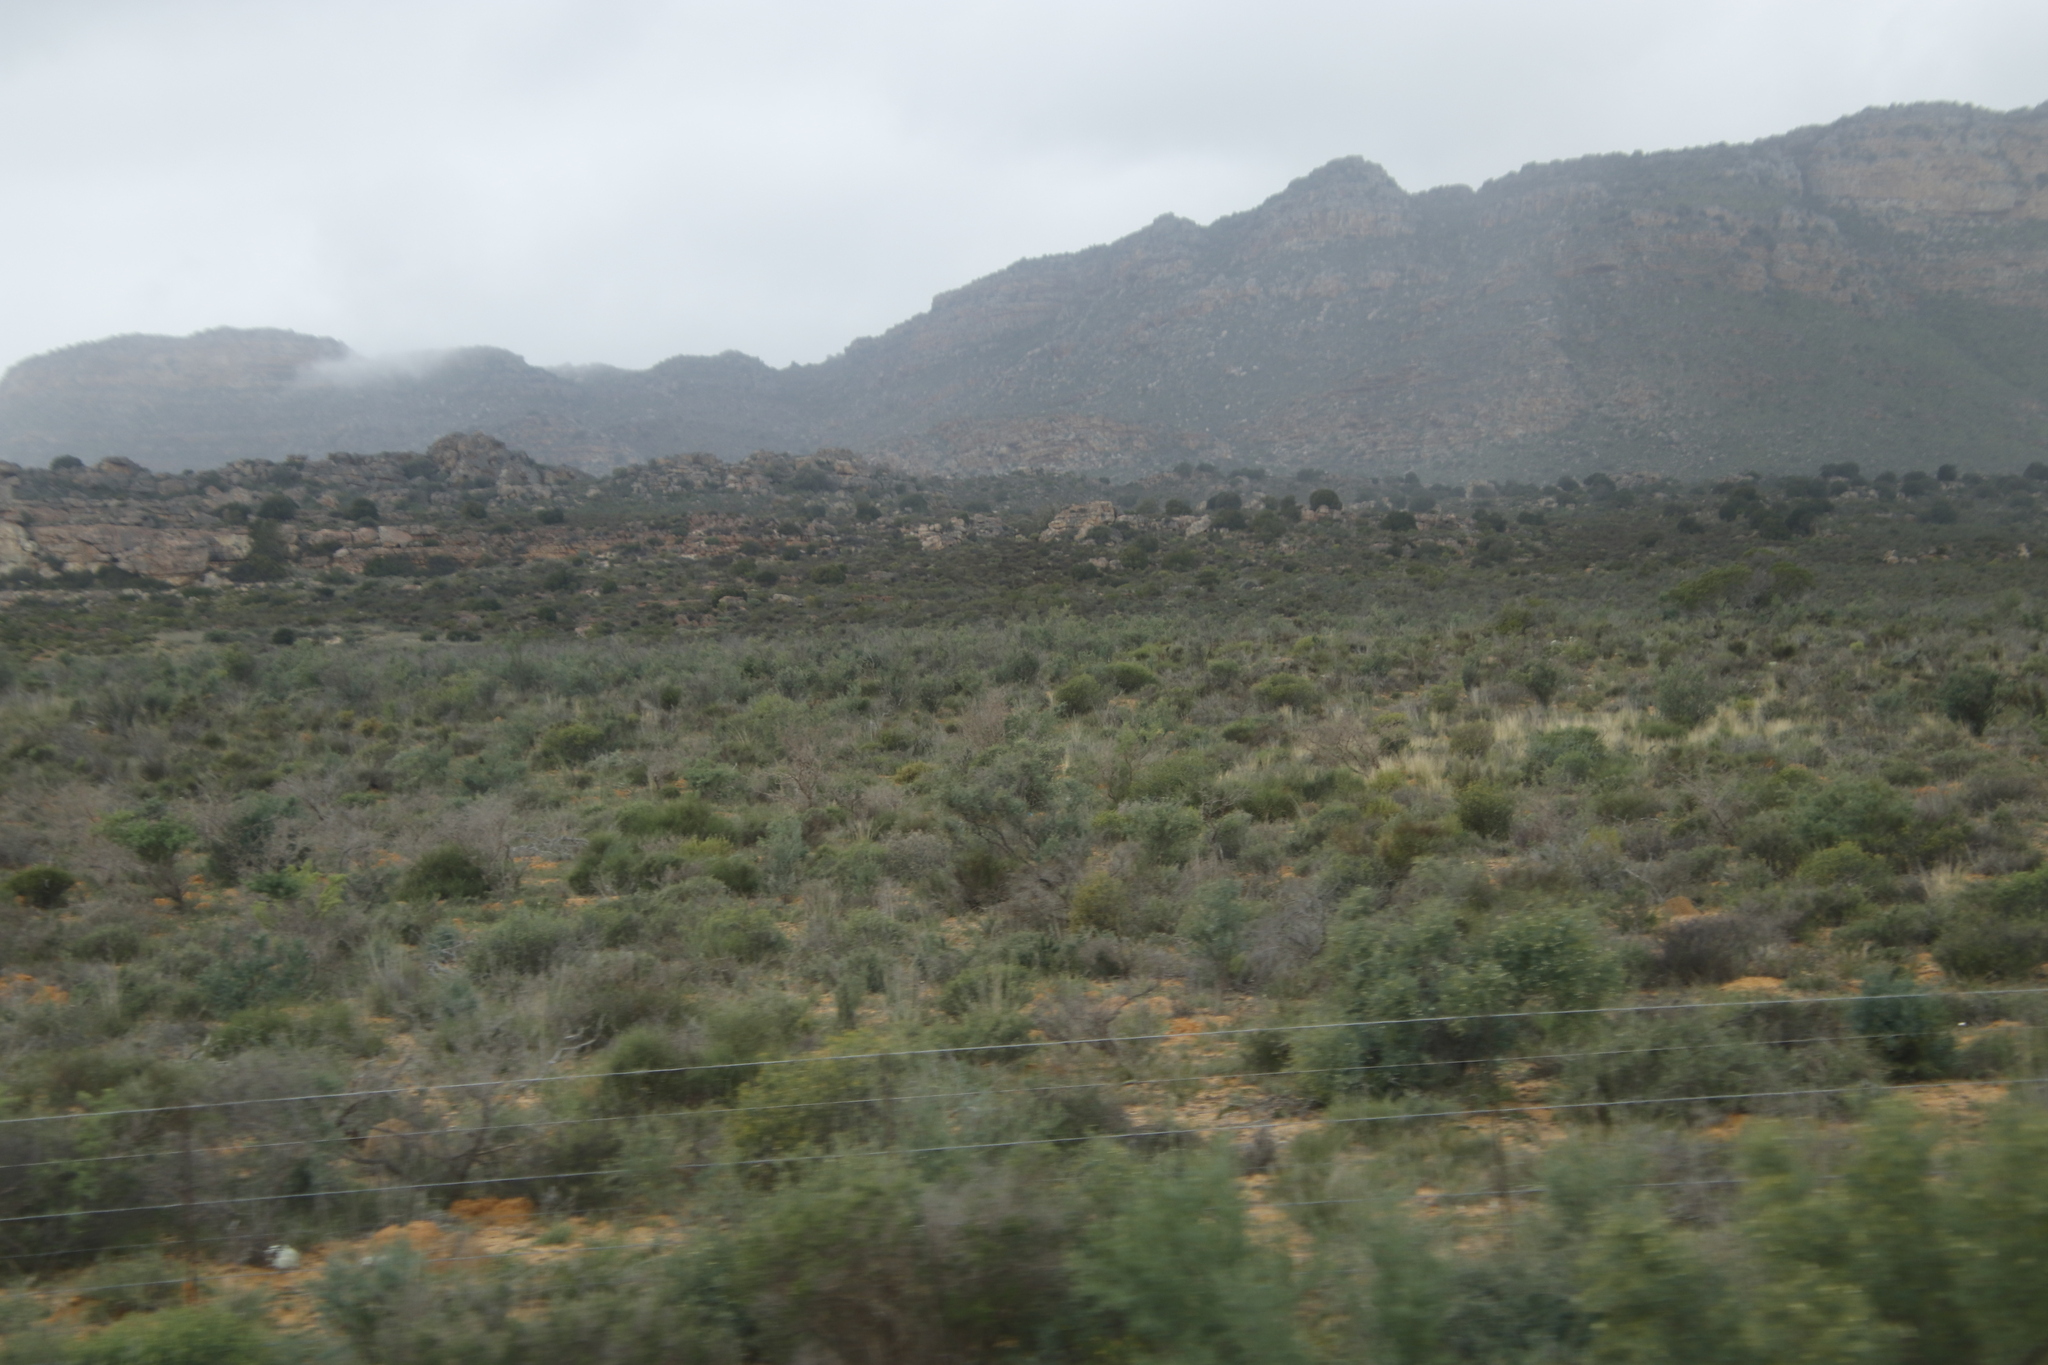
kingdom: Plantae
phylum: Tracheophyta
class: Magnoliopsida
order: Solanales
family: Montiniaceae
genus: Montinia
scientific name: Montinia caryophyllacea
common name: Wild clove-bush
